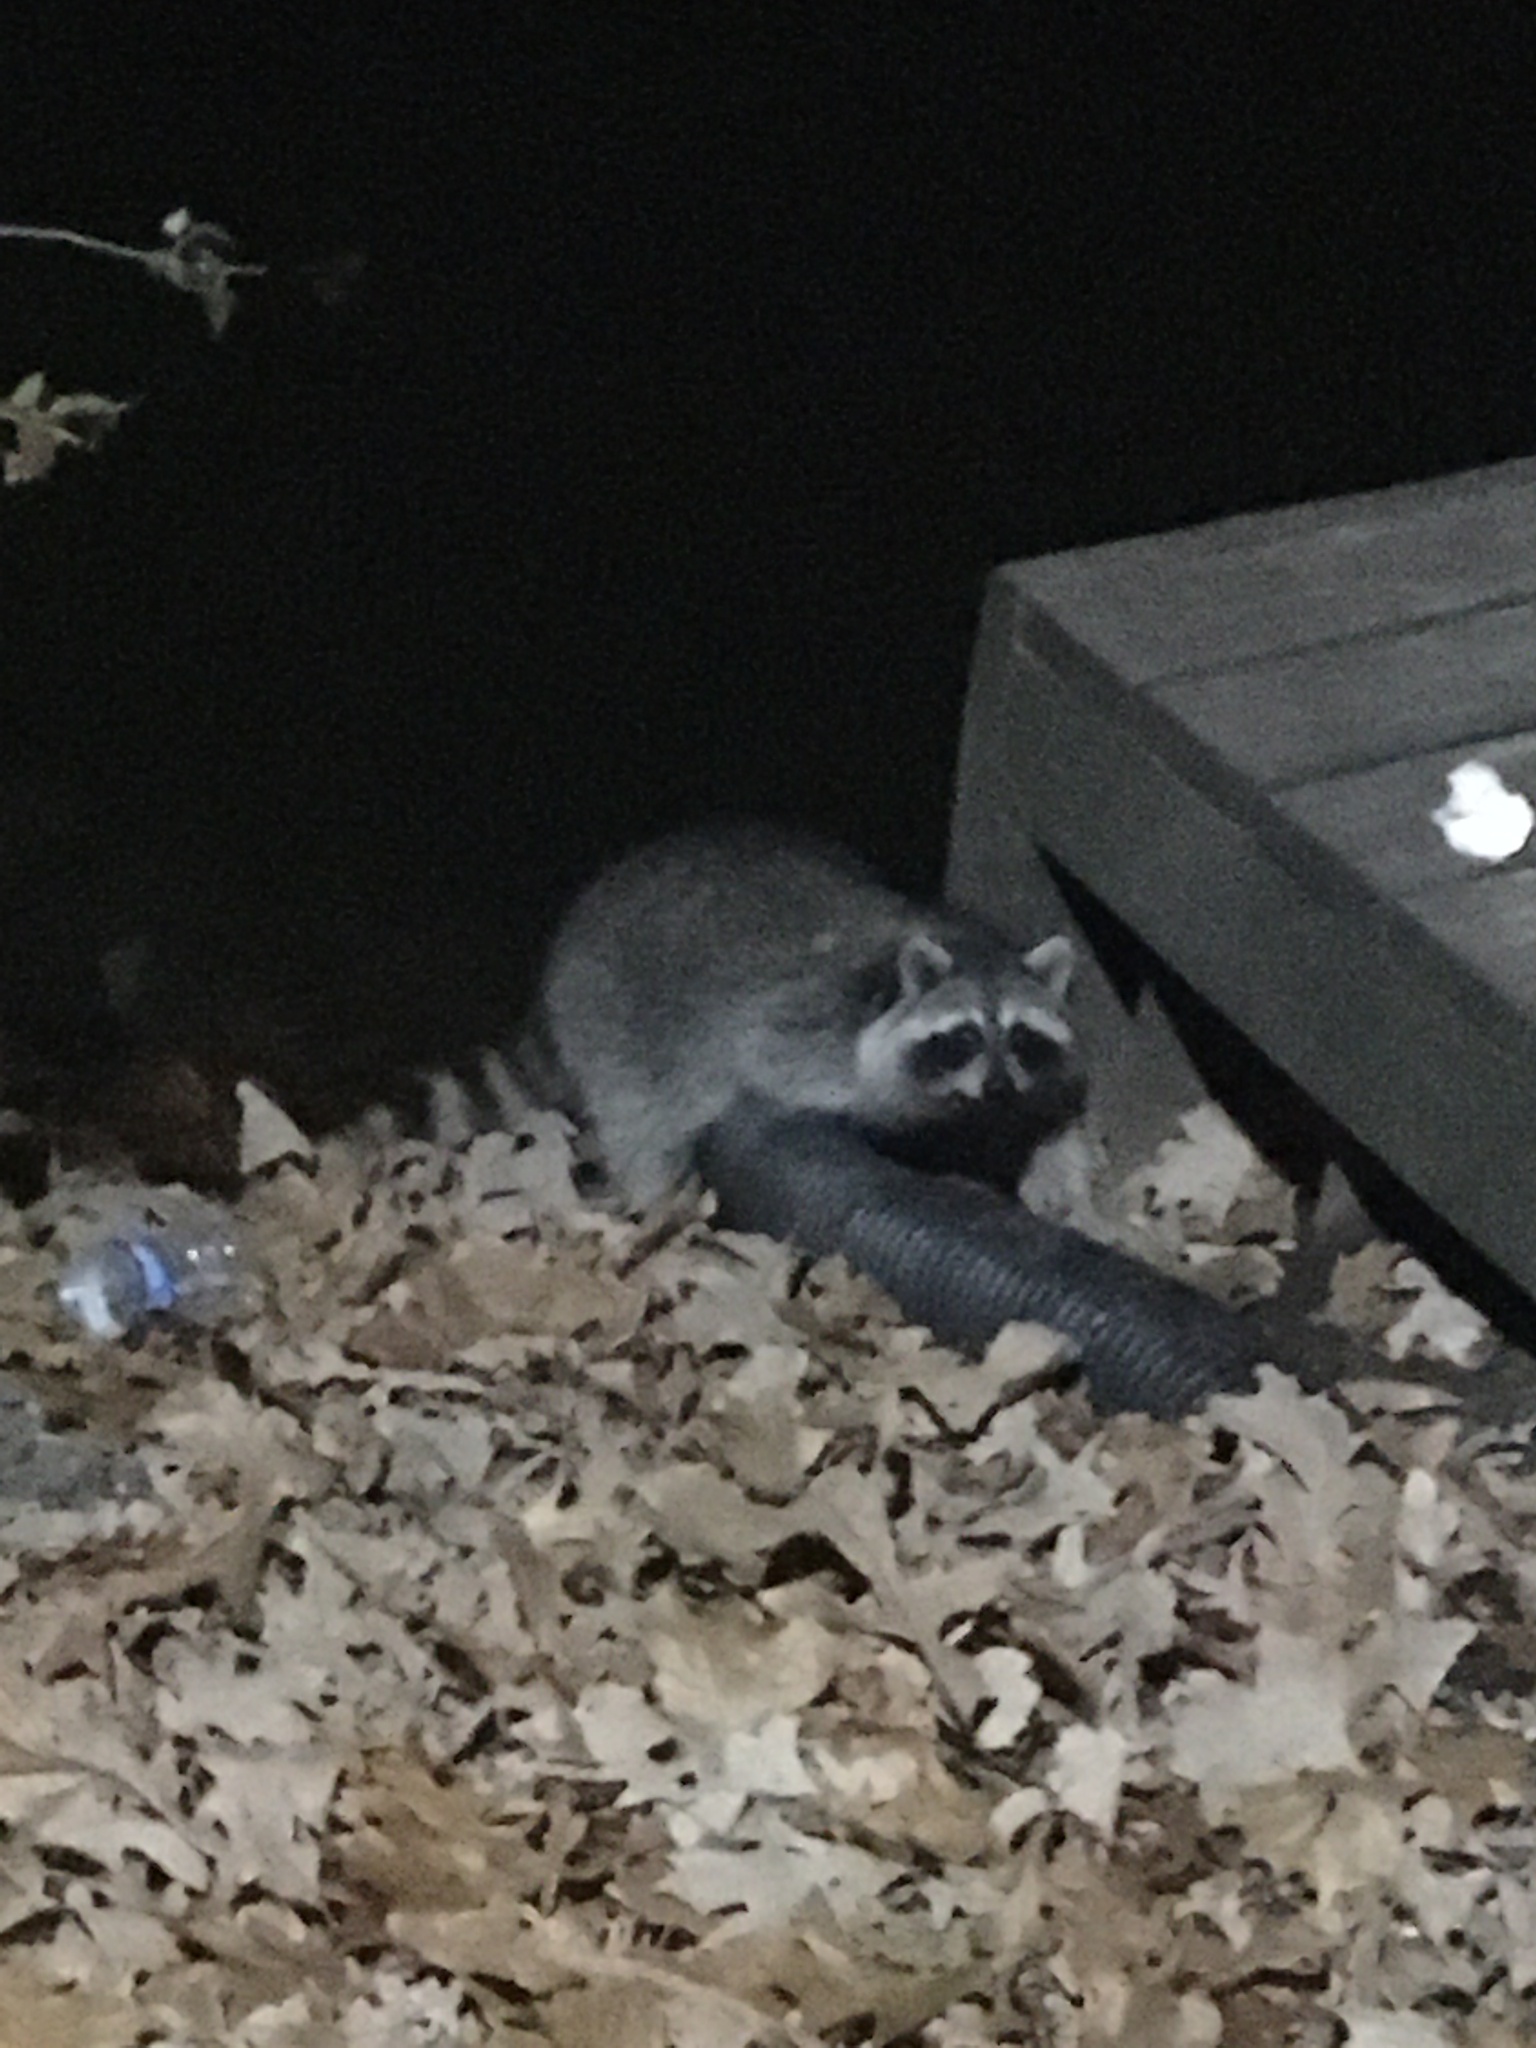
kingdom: Animalia
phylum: Chordata
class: Mammalia
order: Carnivora
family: Procyonidae
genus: Procyon
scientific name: Procyon lotor
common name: Raccoon
